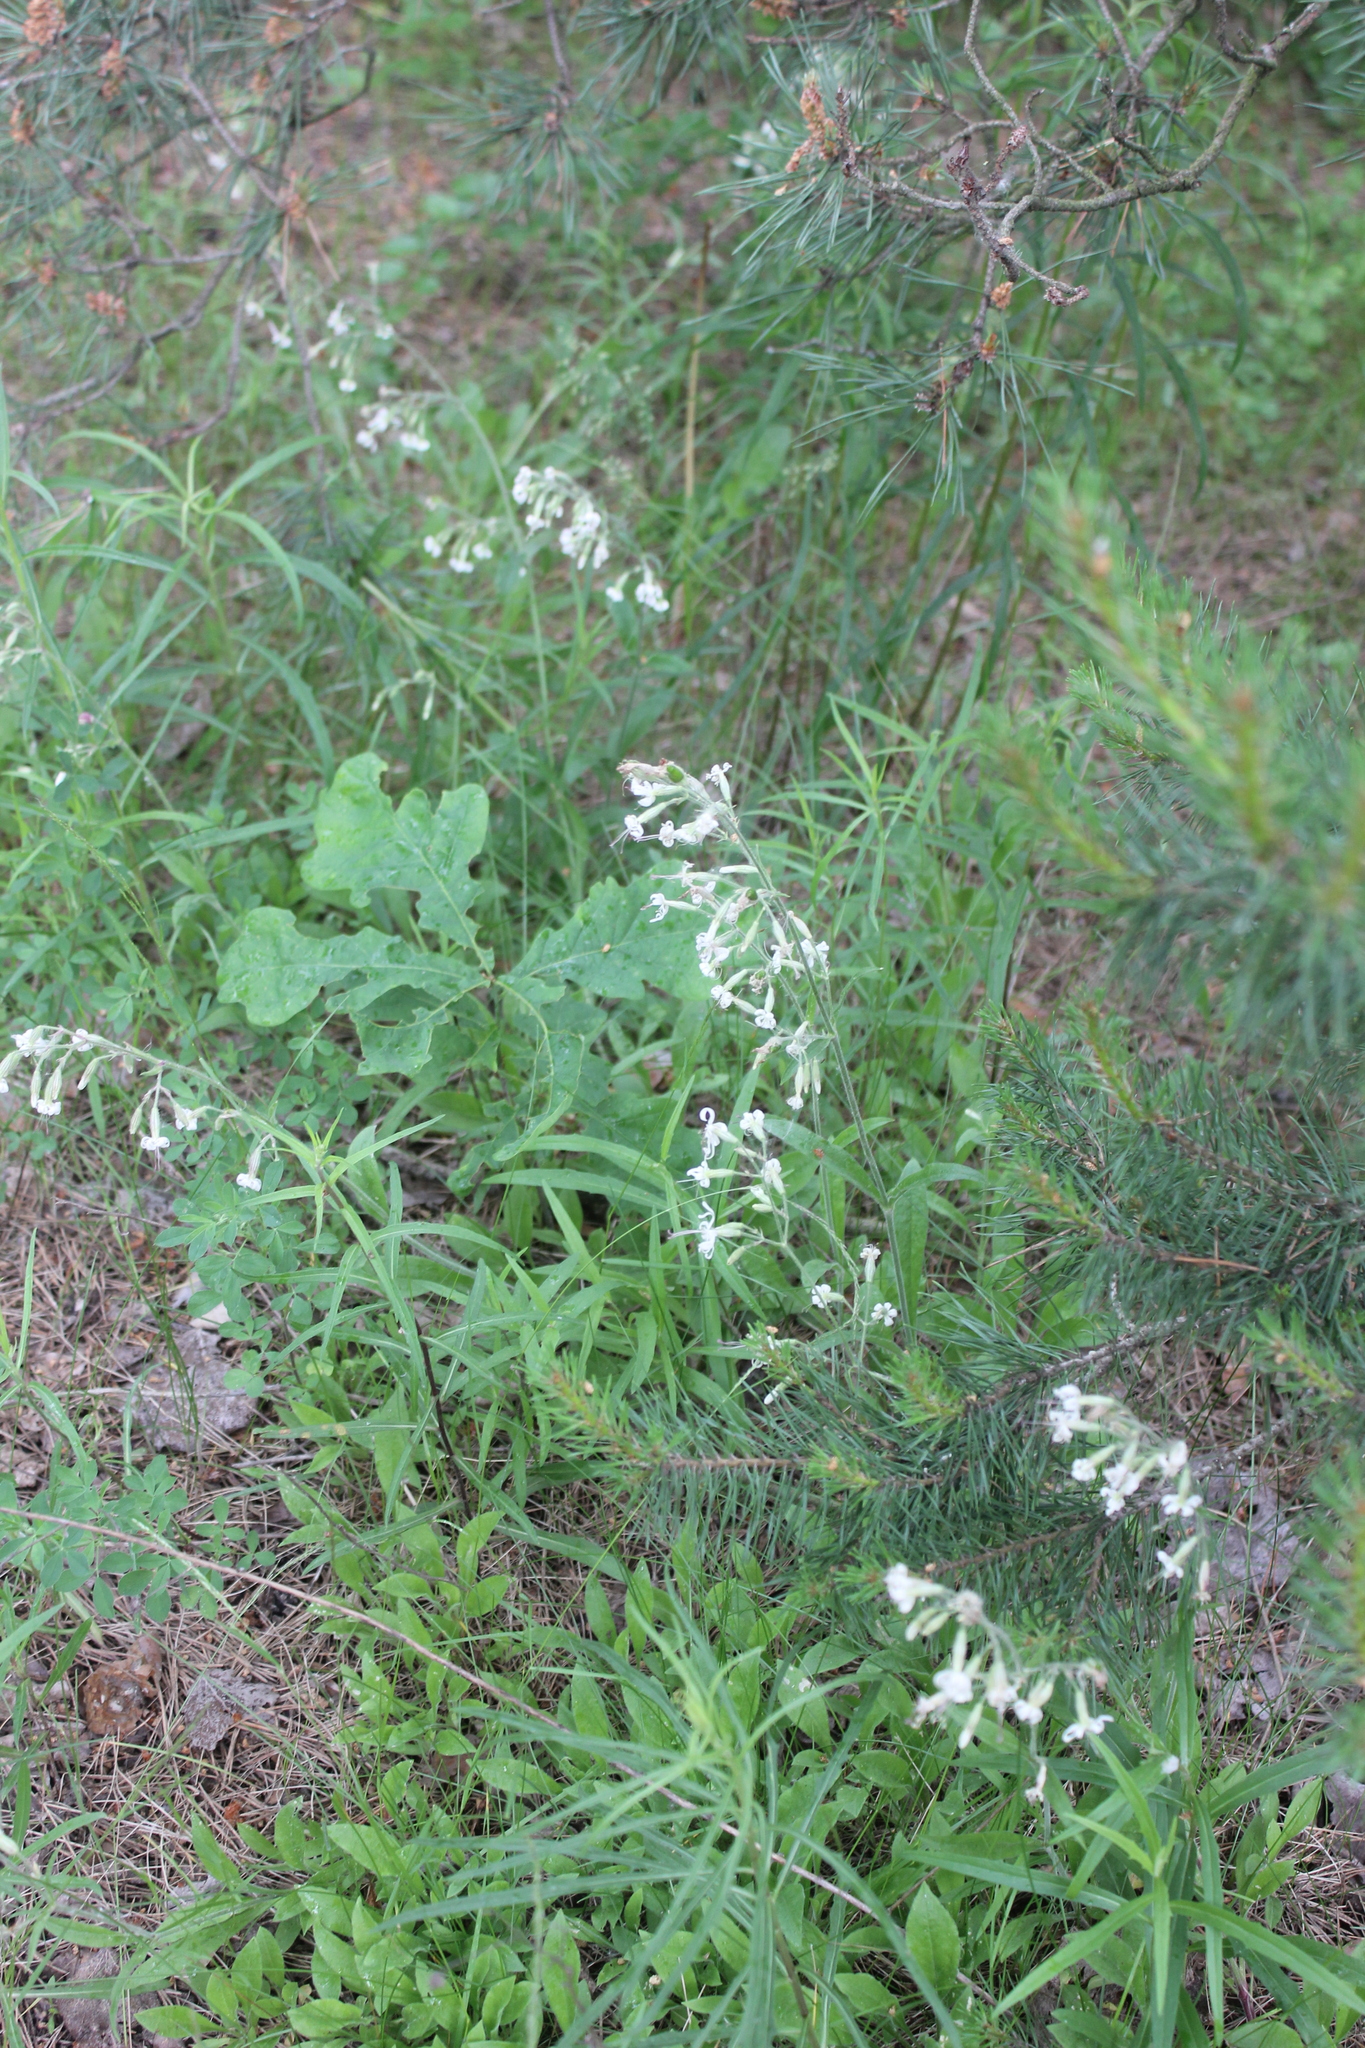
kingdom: Plantae
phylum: Tracheophyta
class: Magnoliopsida
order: Caryophyllales
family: Caryophyllaceae
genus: Silene
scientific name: Silene nutans
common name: Nottingham catchfly
